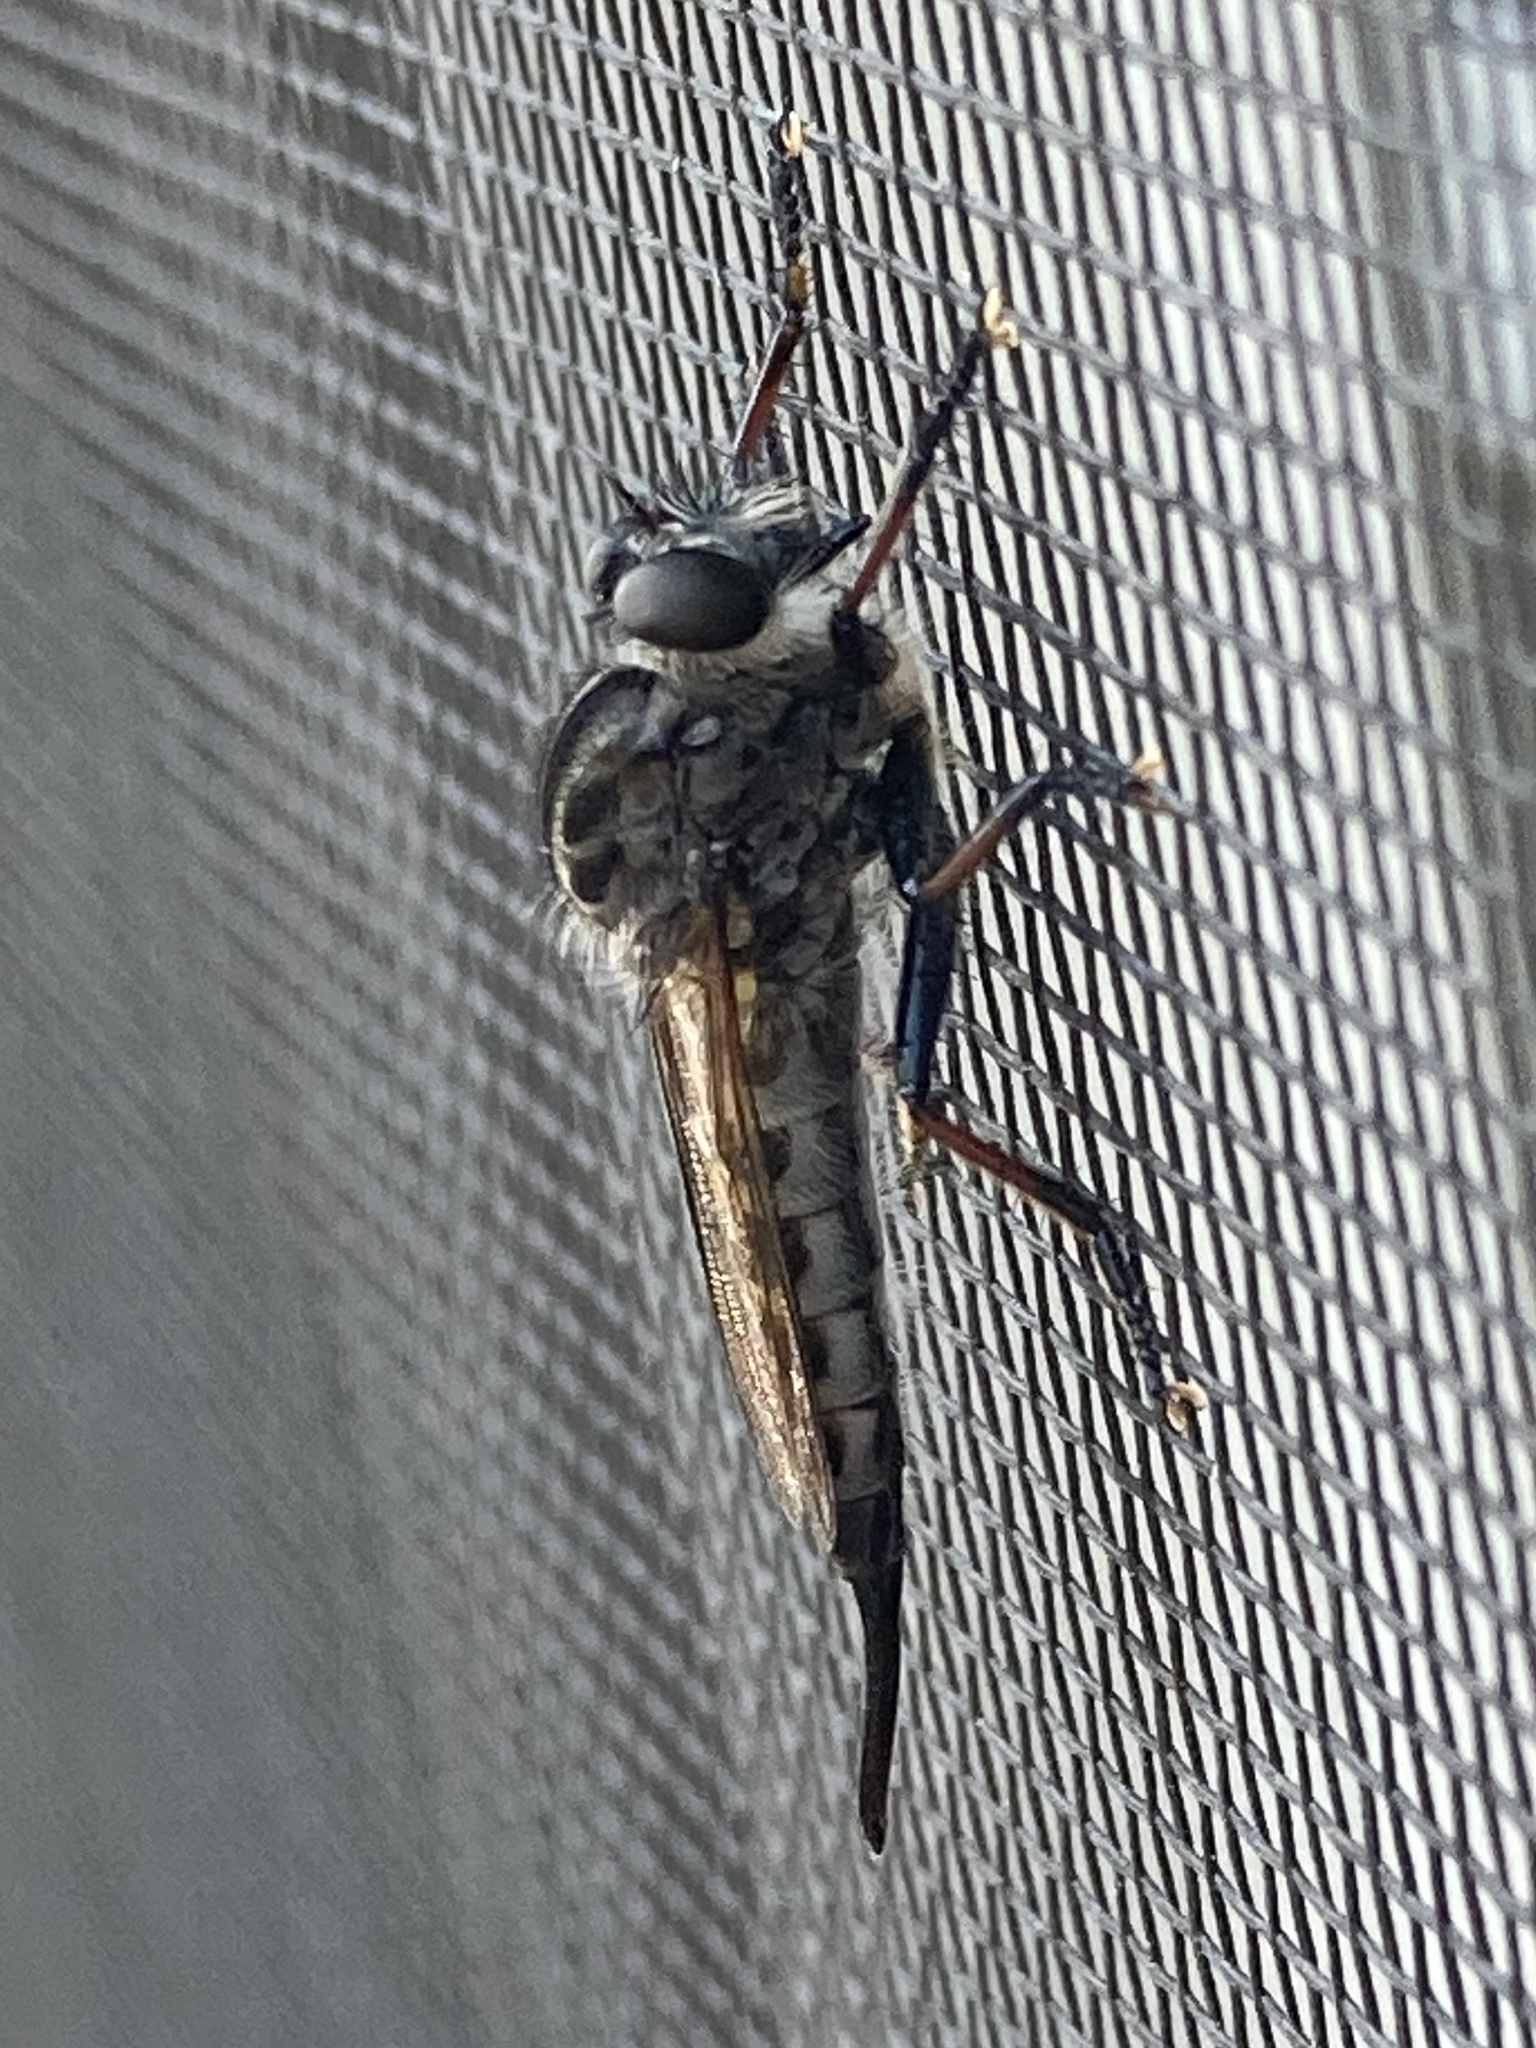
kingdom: Animalia
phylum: Arthropoda
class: Insecta
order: Diptera
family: Asilidae
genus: Efferia
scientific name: Efferia aestuans
